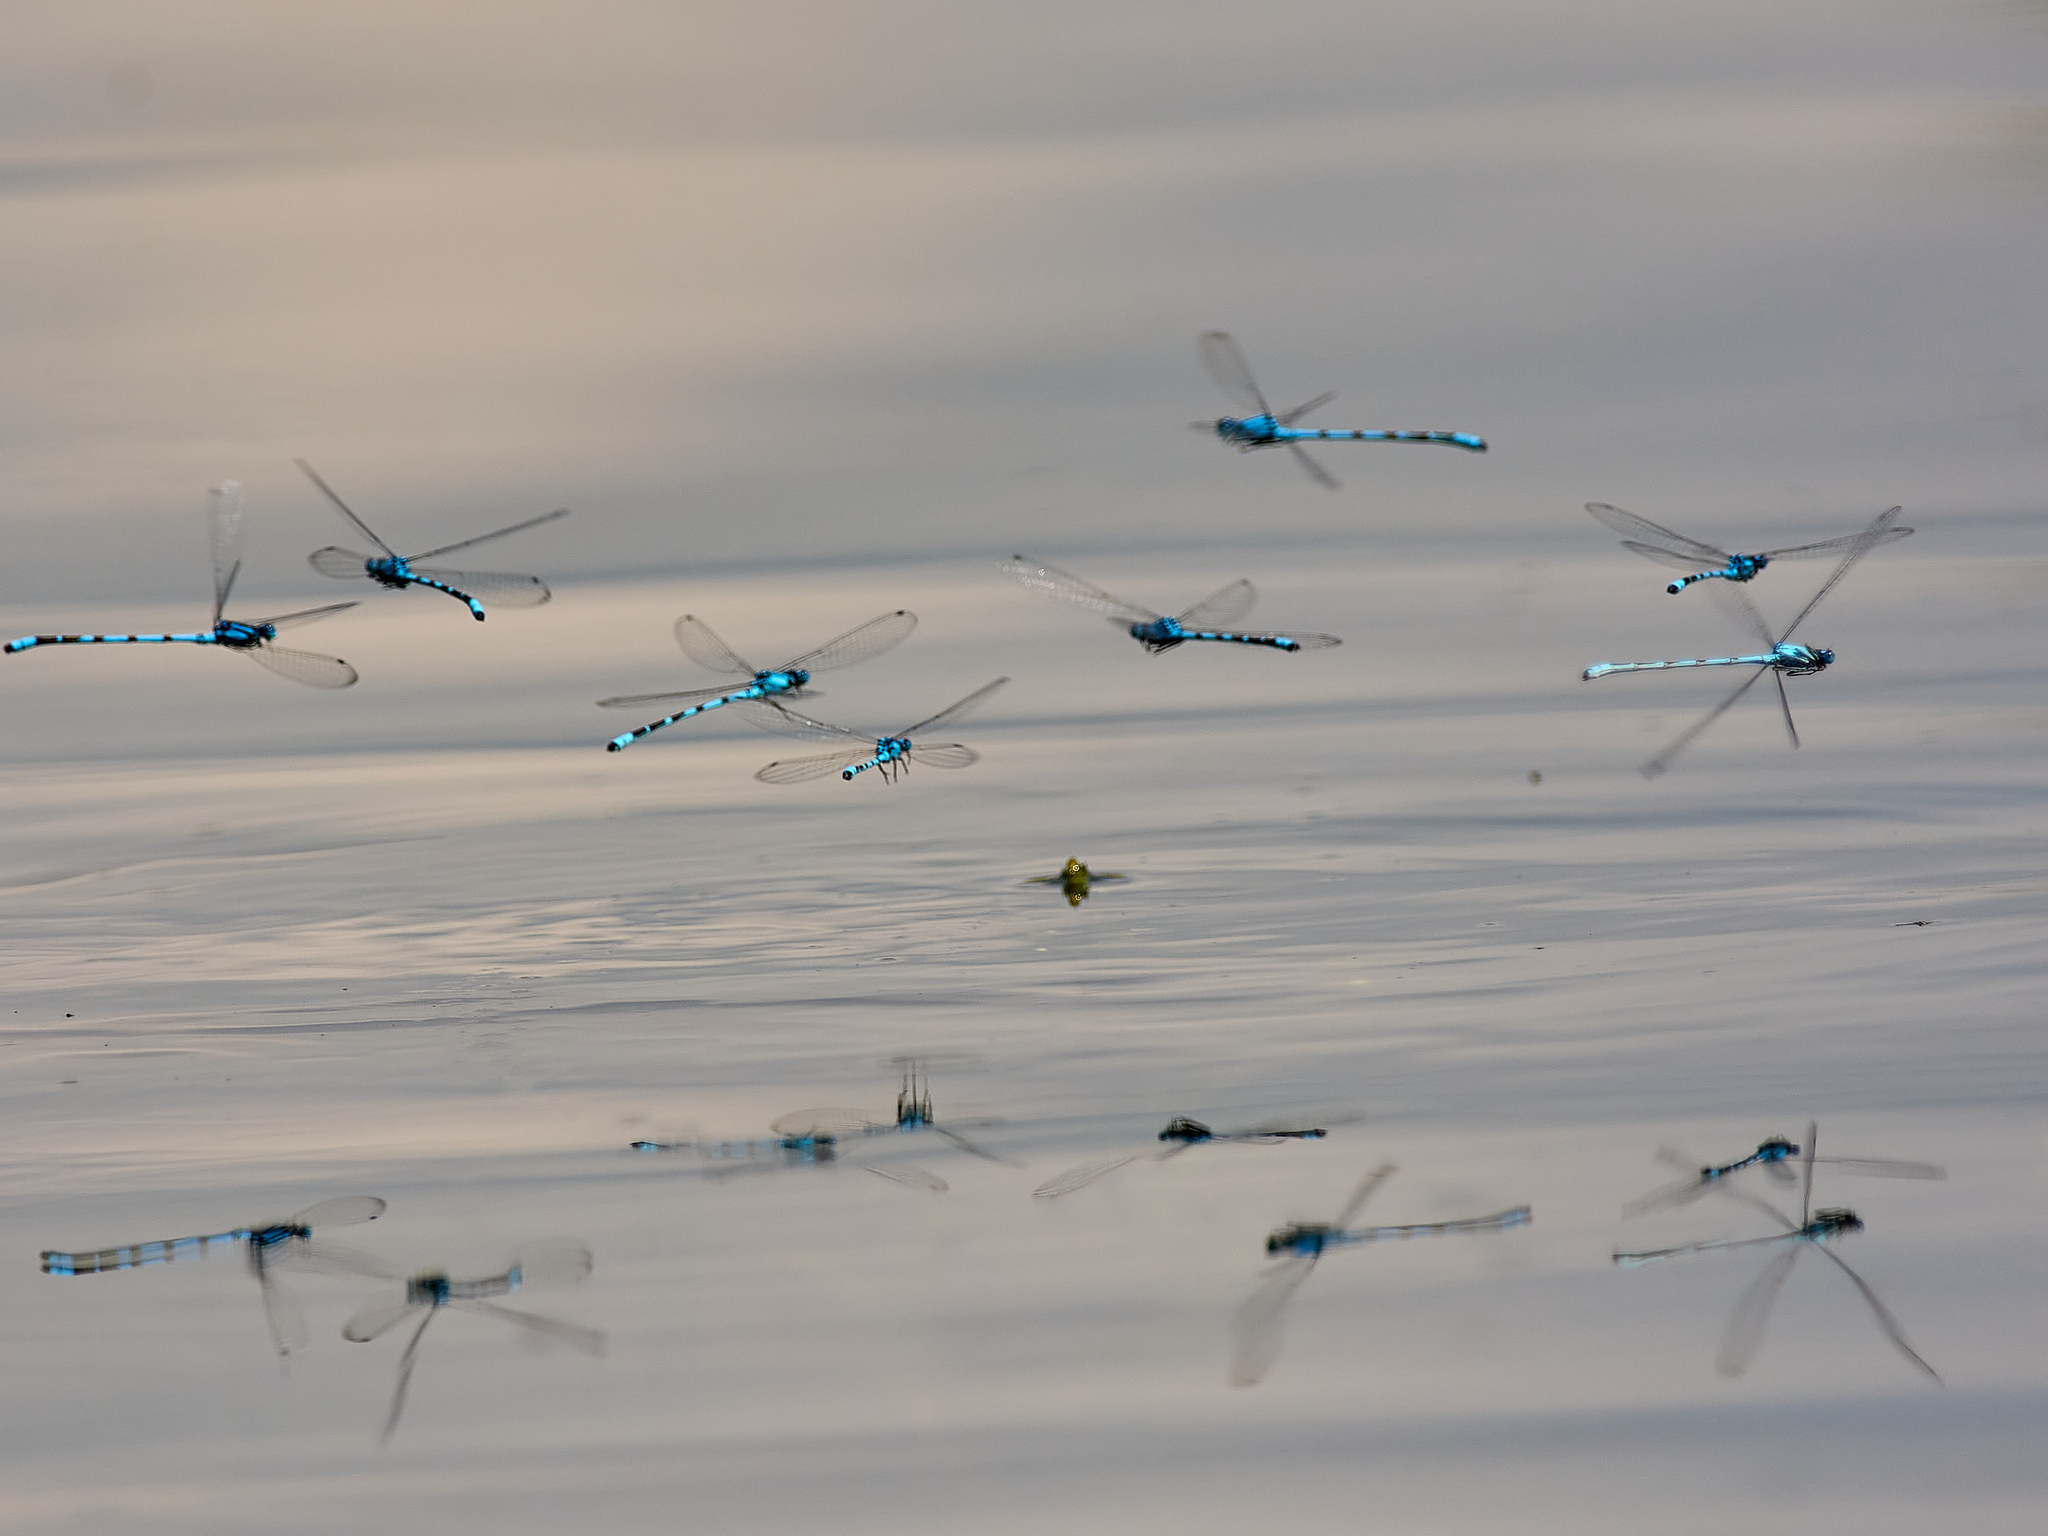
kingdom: Animalia
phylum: Arthropoda
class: Insecta
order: Odonata
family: Coenagrionidae
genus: Enallagma
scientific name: Enallagma cyathigerum
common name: Common blue damselfly
